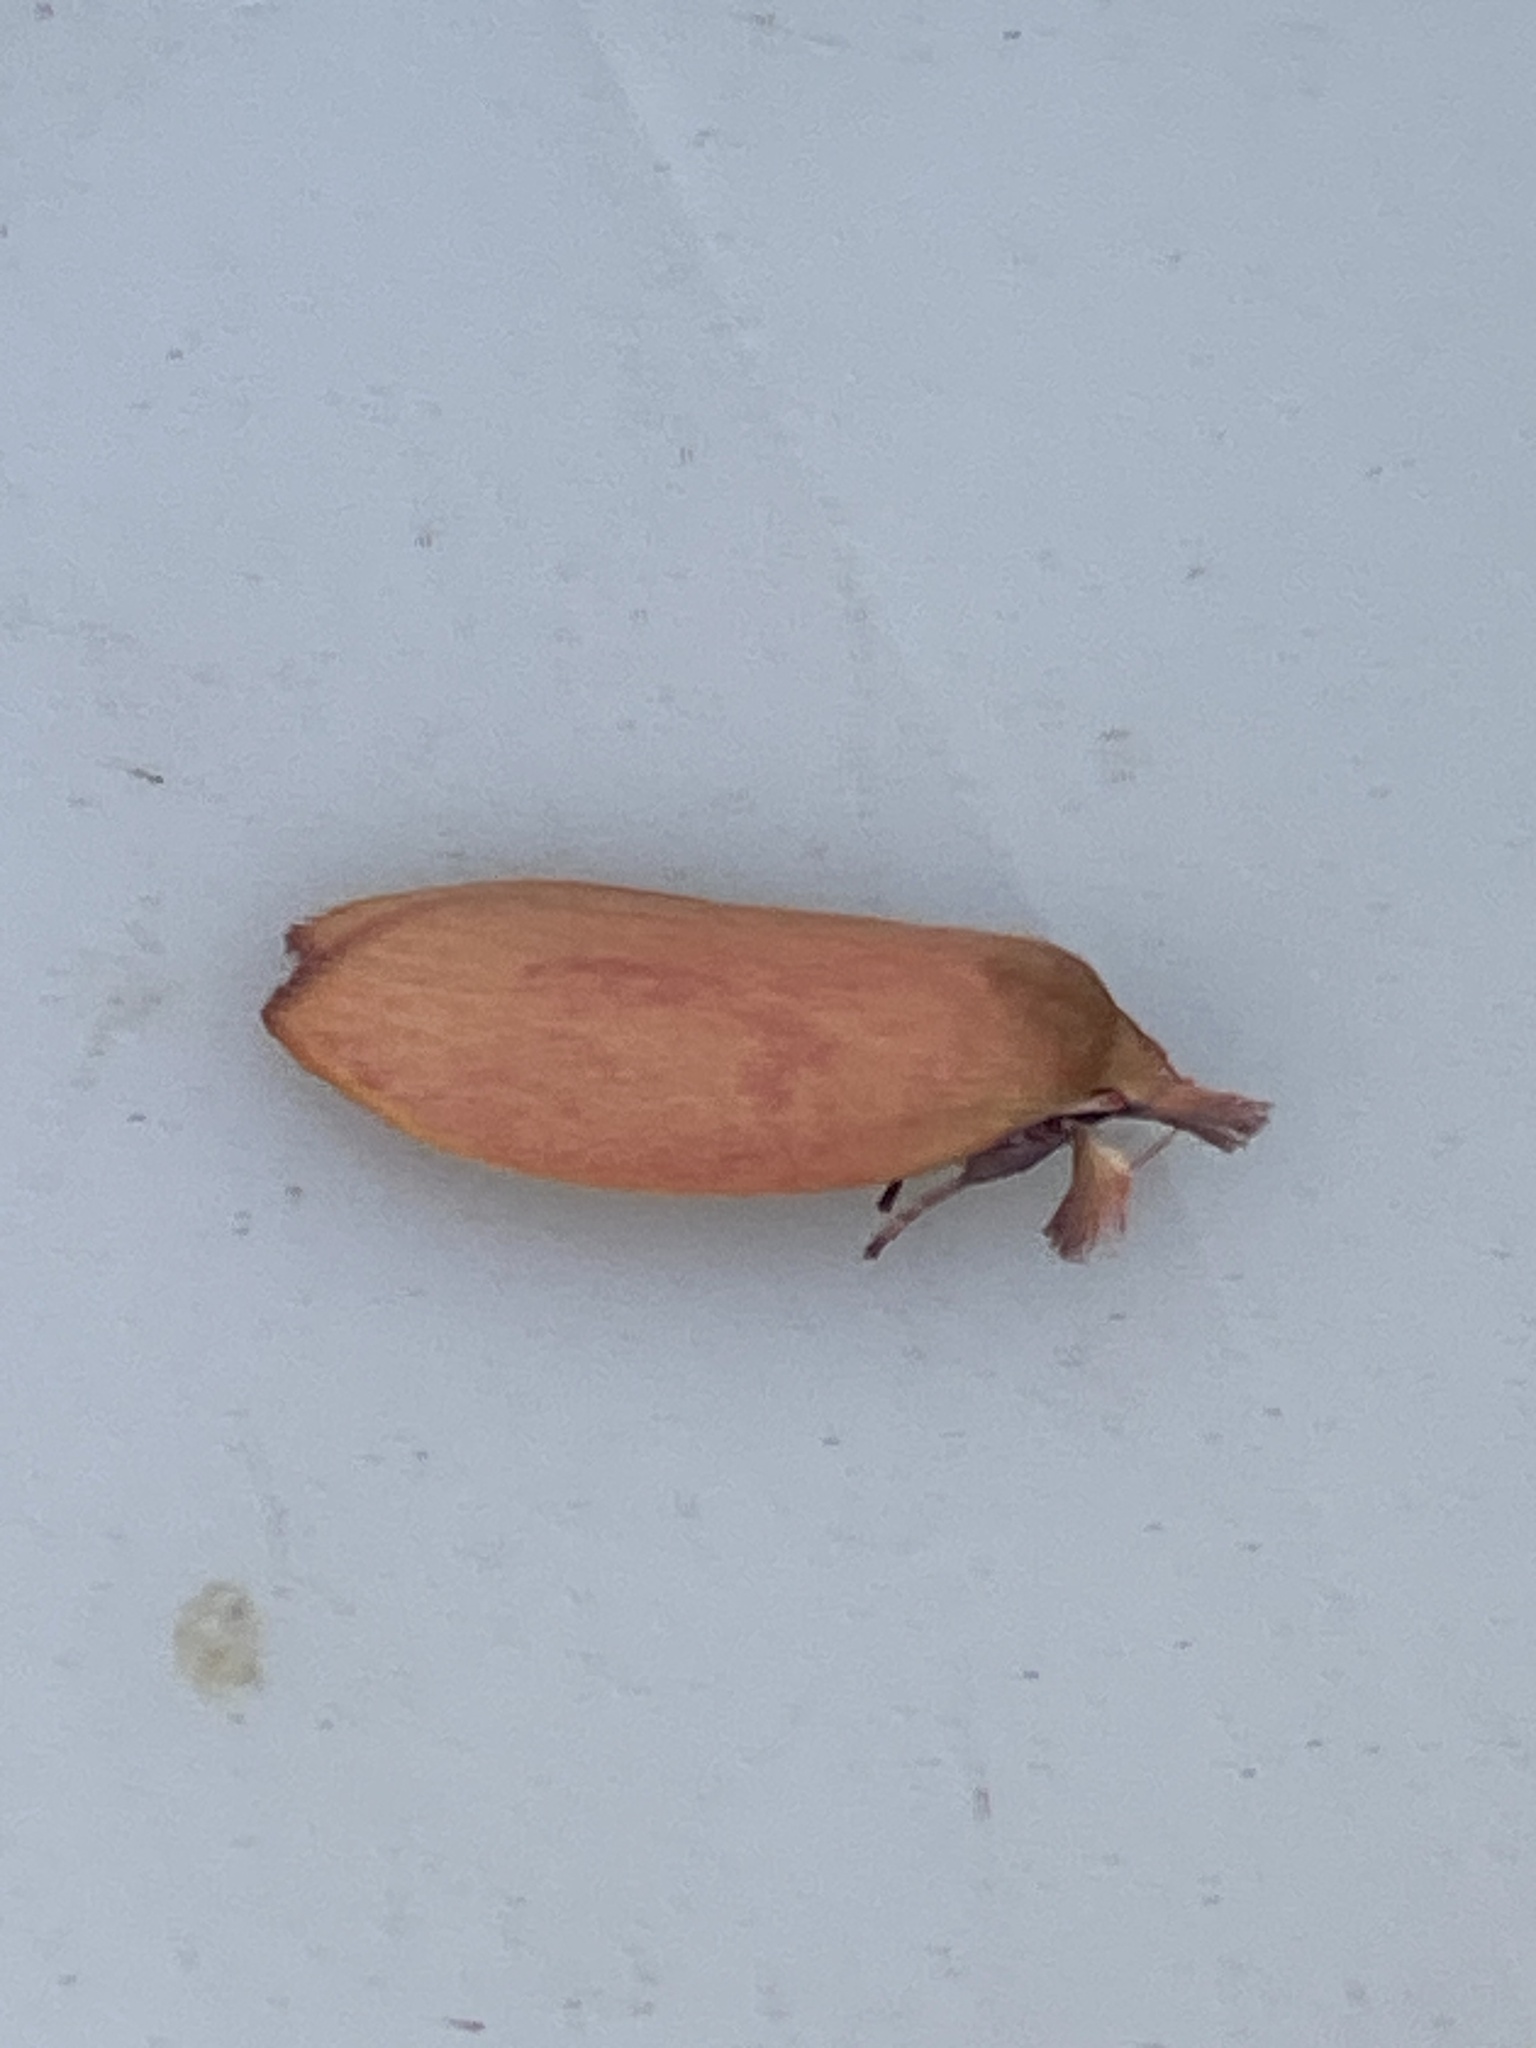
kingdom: Animalia
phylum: Arthropoda
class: Insecta
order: Lepidoptera
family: Oecophoridae
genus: Wingia
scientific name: Wingia rectiorella
